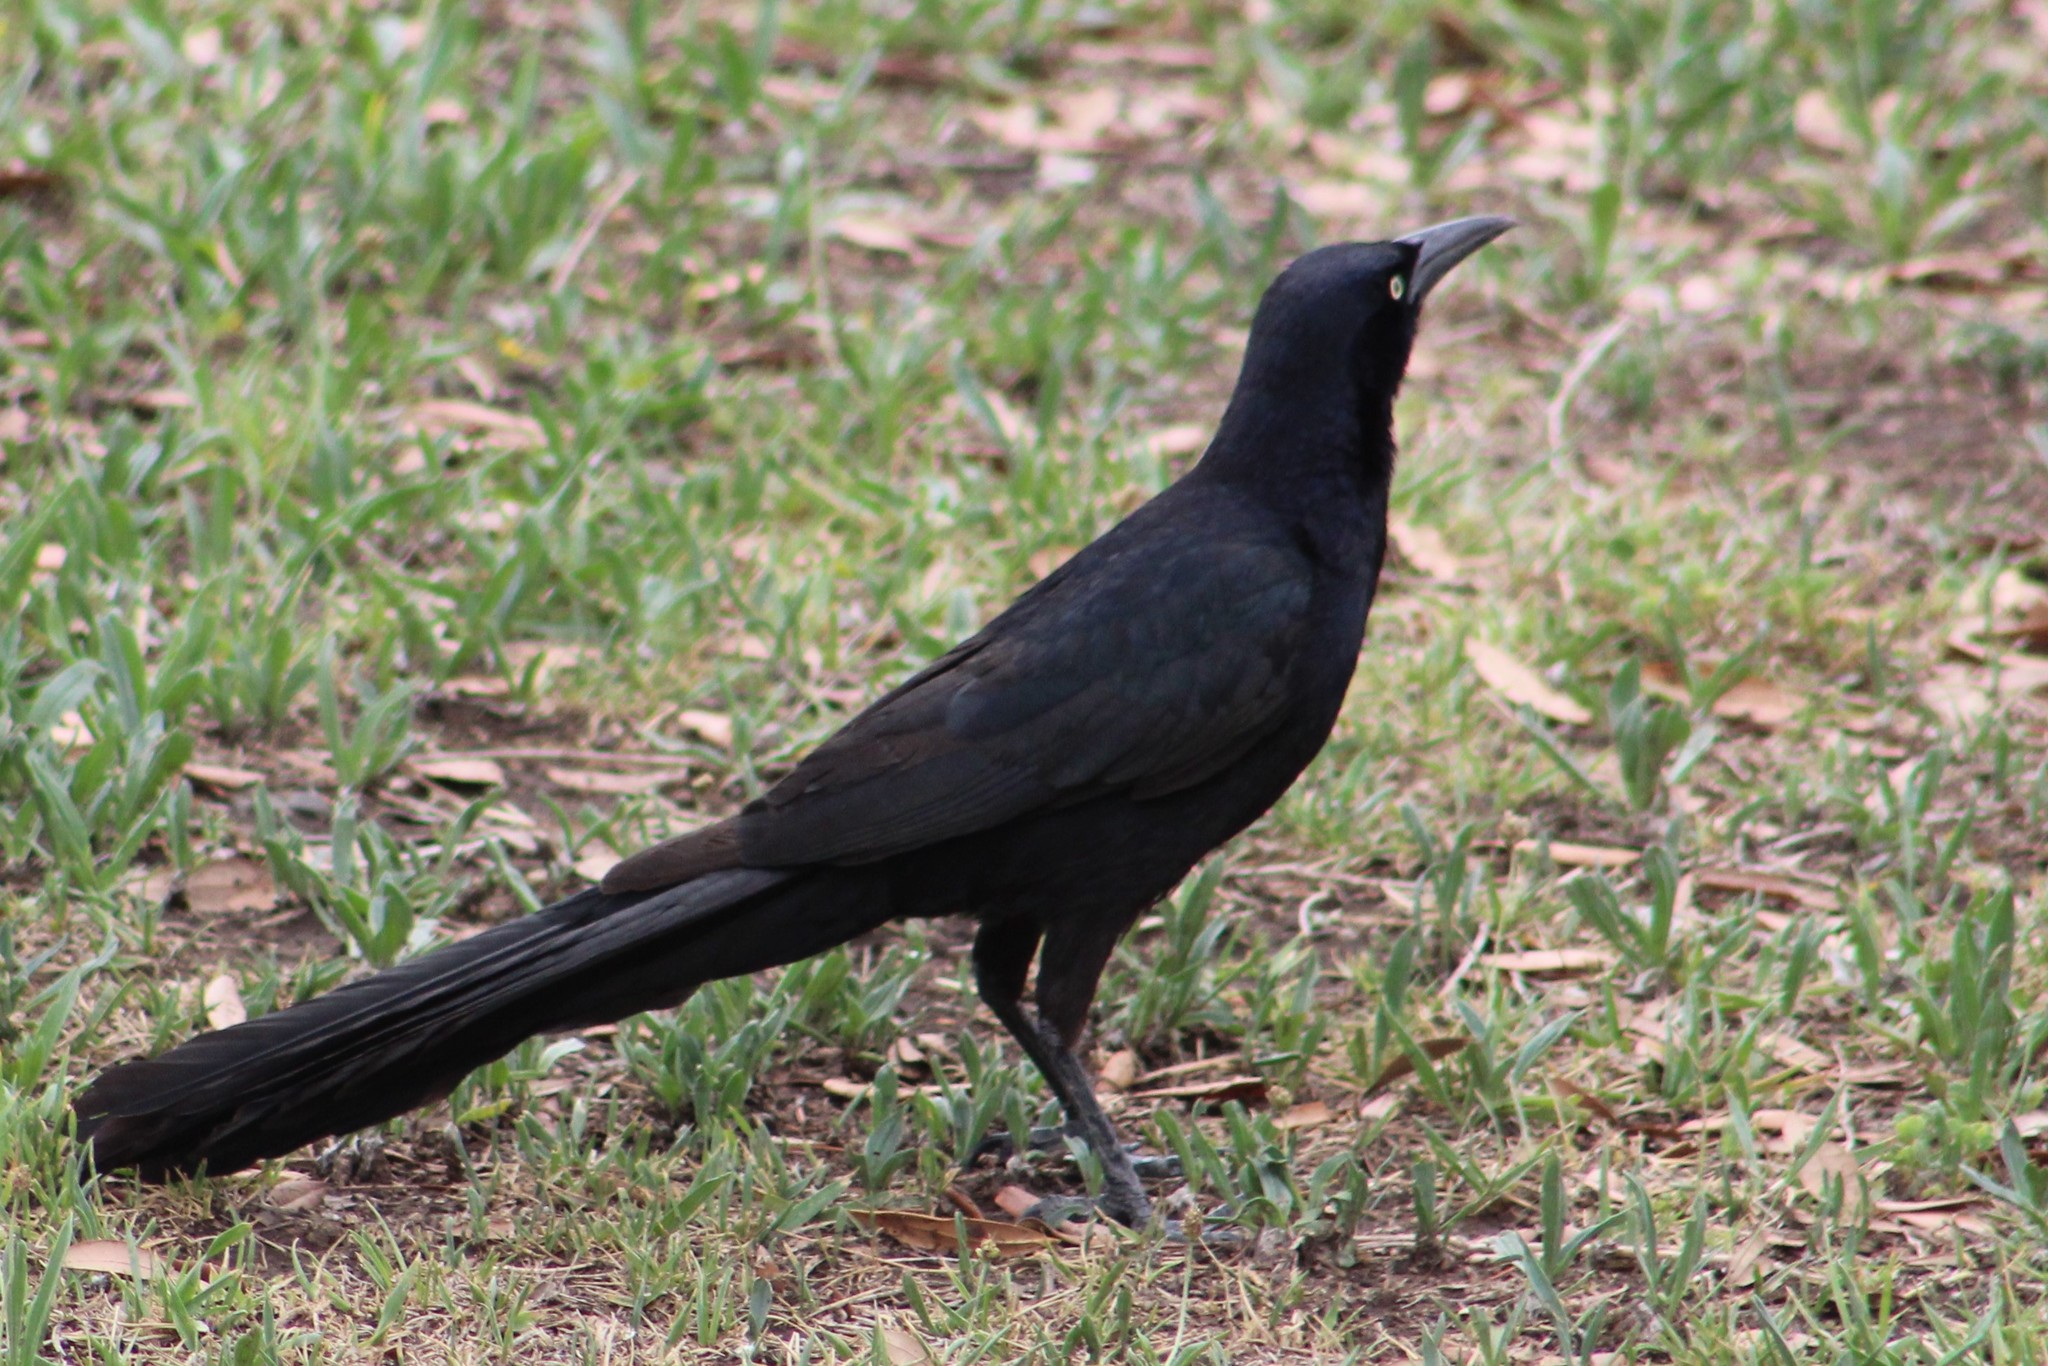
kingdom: Animalia
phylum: Chordata
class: Aves
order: Passeriformes
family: Icteridae
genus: Quiscalus
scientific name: Quiscalus mexicanus
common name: Great-tailed grackle
